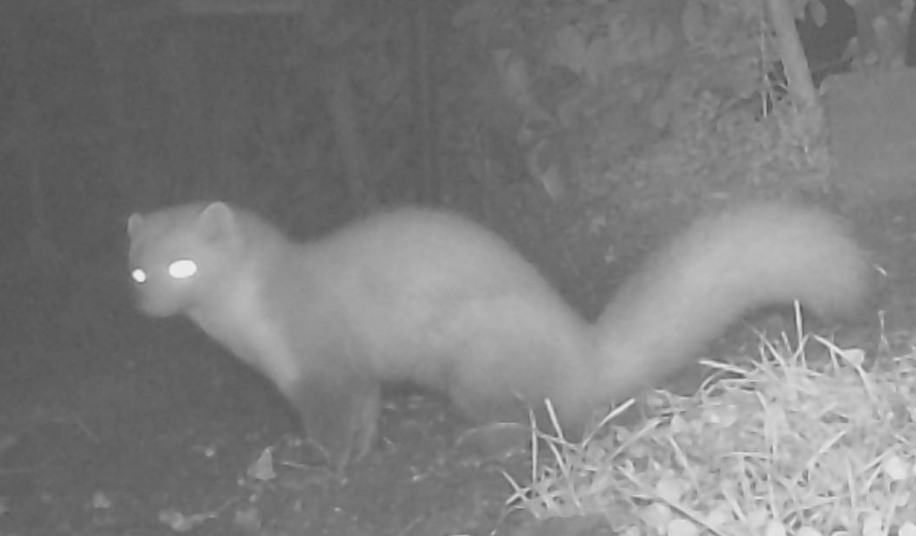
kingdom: Animalia
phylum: Chordata
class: Mammalia
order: Carnivora
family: Mustelidae
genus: Martes
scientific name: Martes foina
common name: Beech marten
